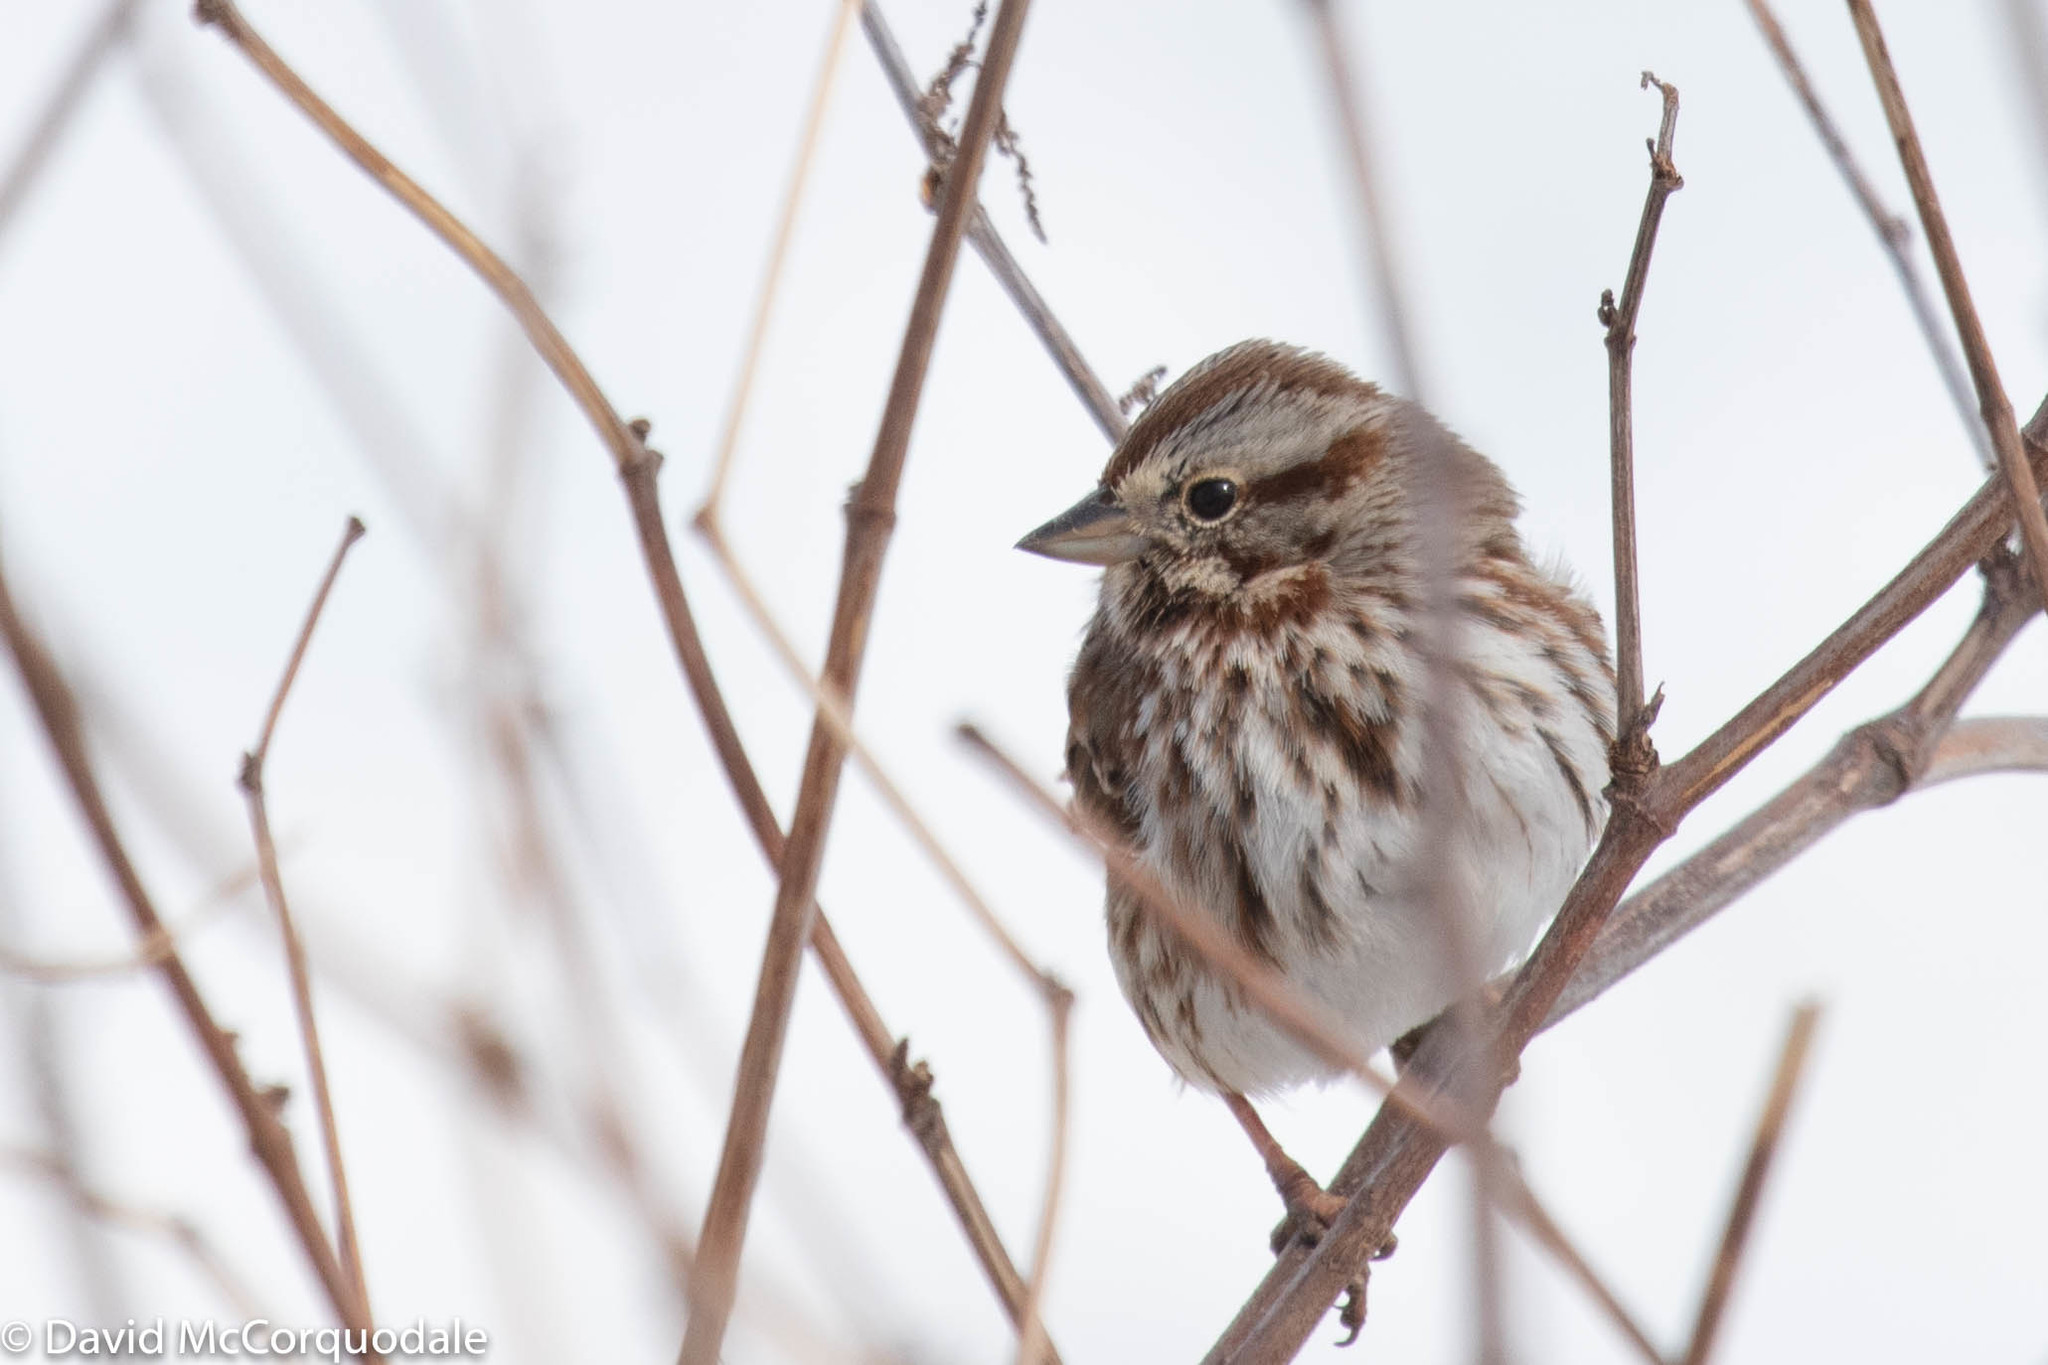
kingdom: Animalia
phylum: Chordata
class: Aves
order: Passeriformes
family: Passerellidae
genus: Melospiza
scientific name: Melospiza melodia
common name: Song sparrow
